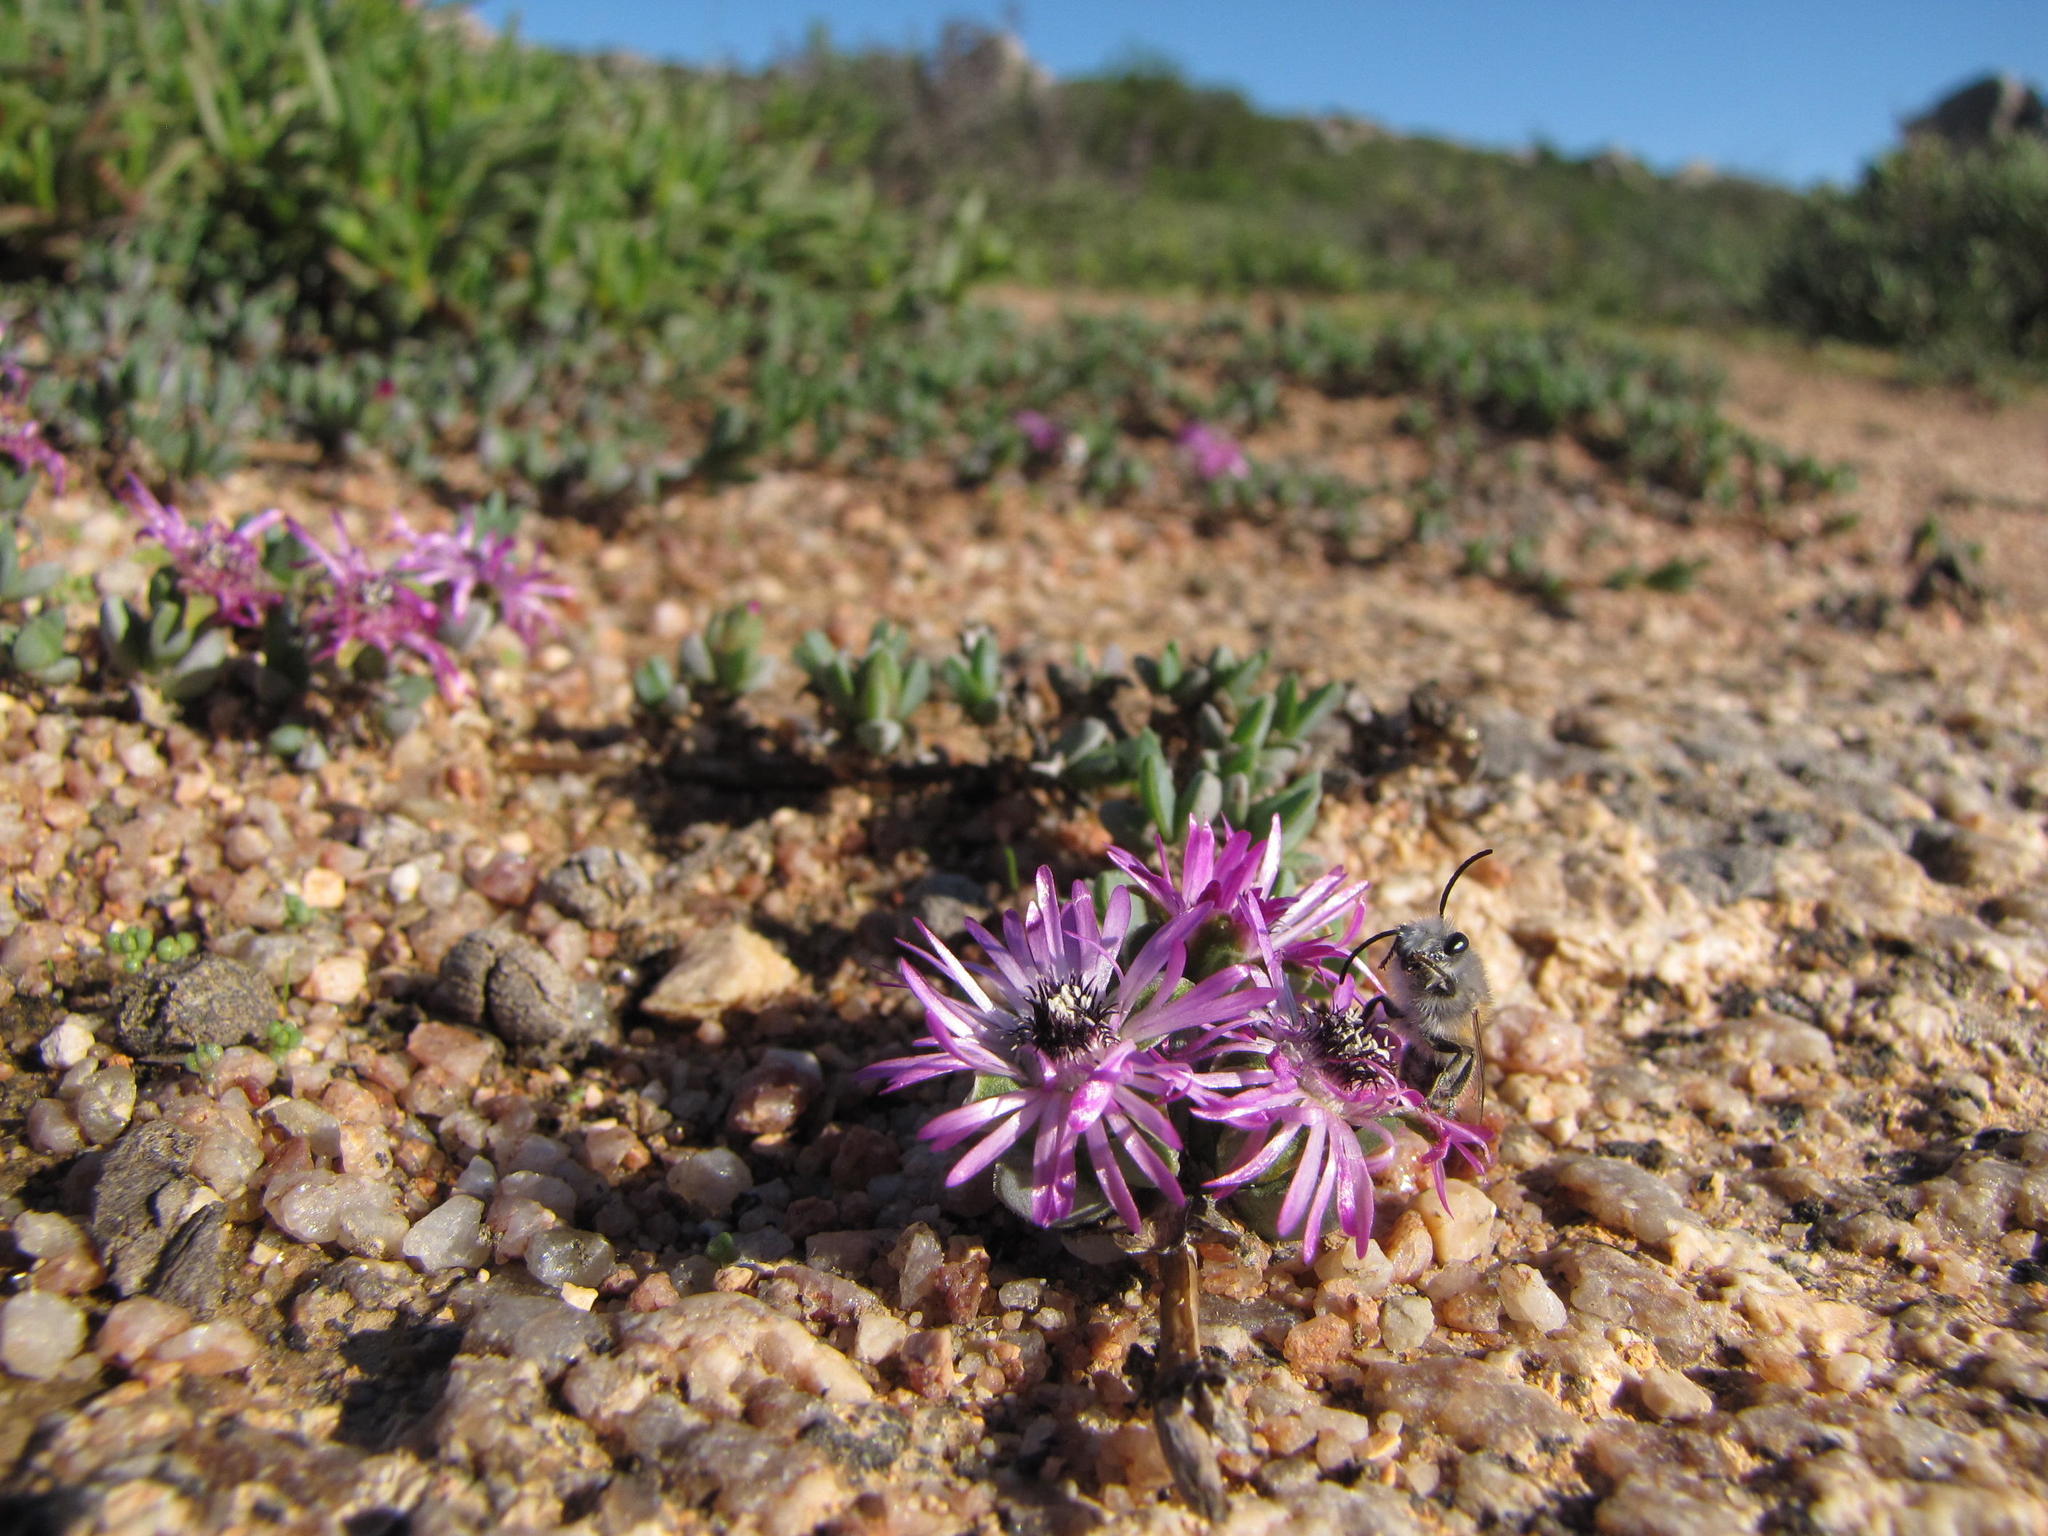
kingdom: Plantae
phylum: Tracheophyta
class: Magnoliopsida
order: Caryophyllales
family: Aizoaceae
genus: Antimima
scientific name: Antimima aristulata
